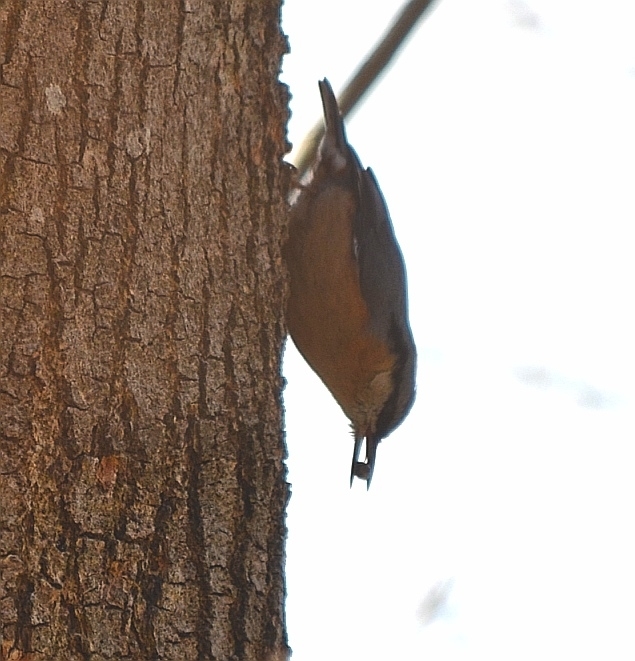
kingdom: Animalia
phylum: Chordata
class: Aves
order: Passeriformes
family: Sittidae
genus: Sitta
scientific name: Sitta europaea
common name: Eurasian nuthatch
